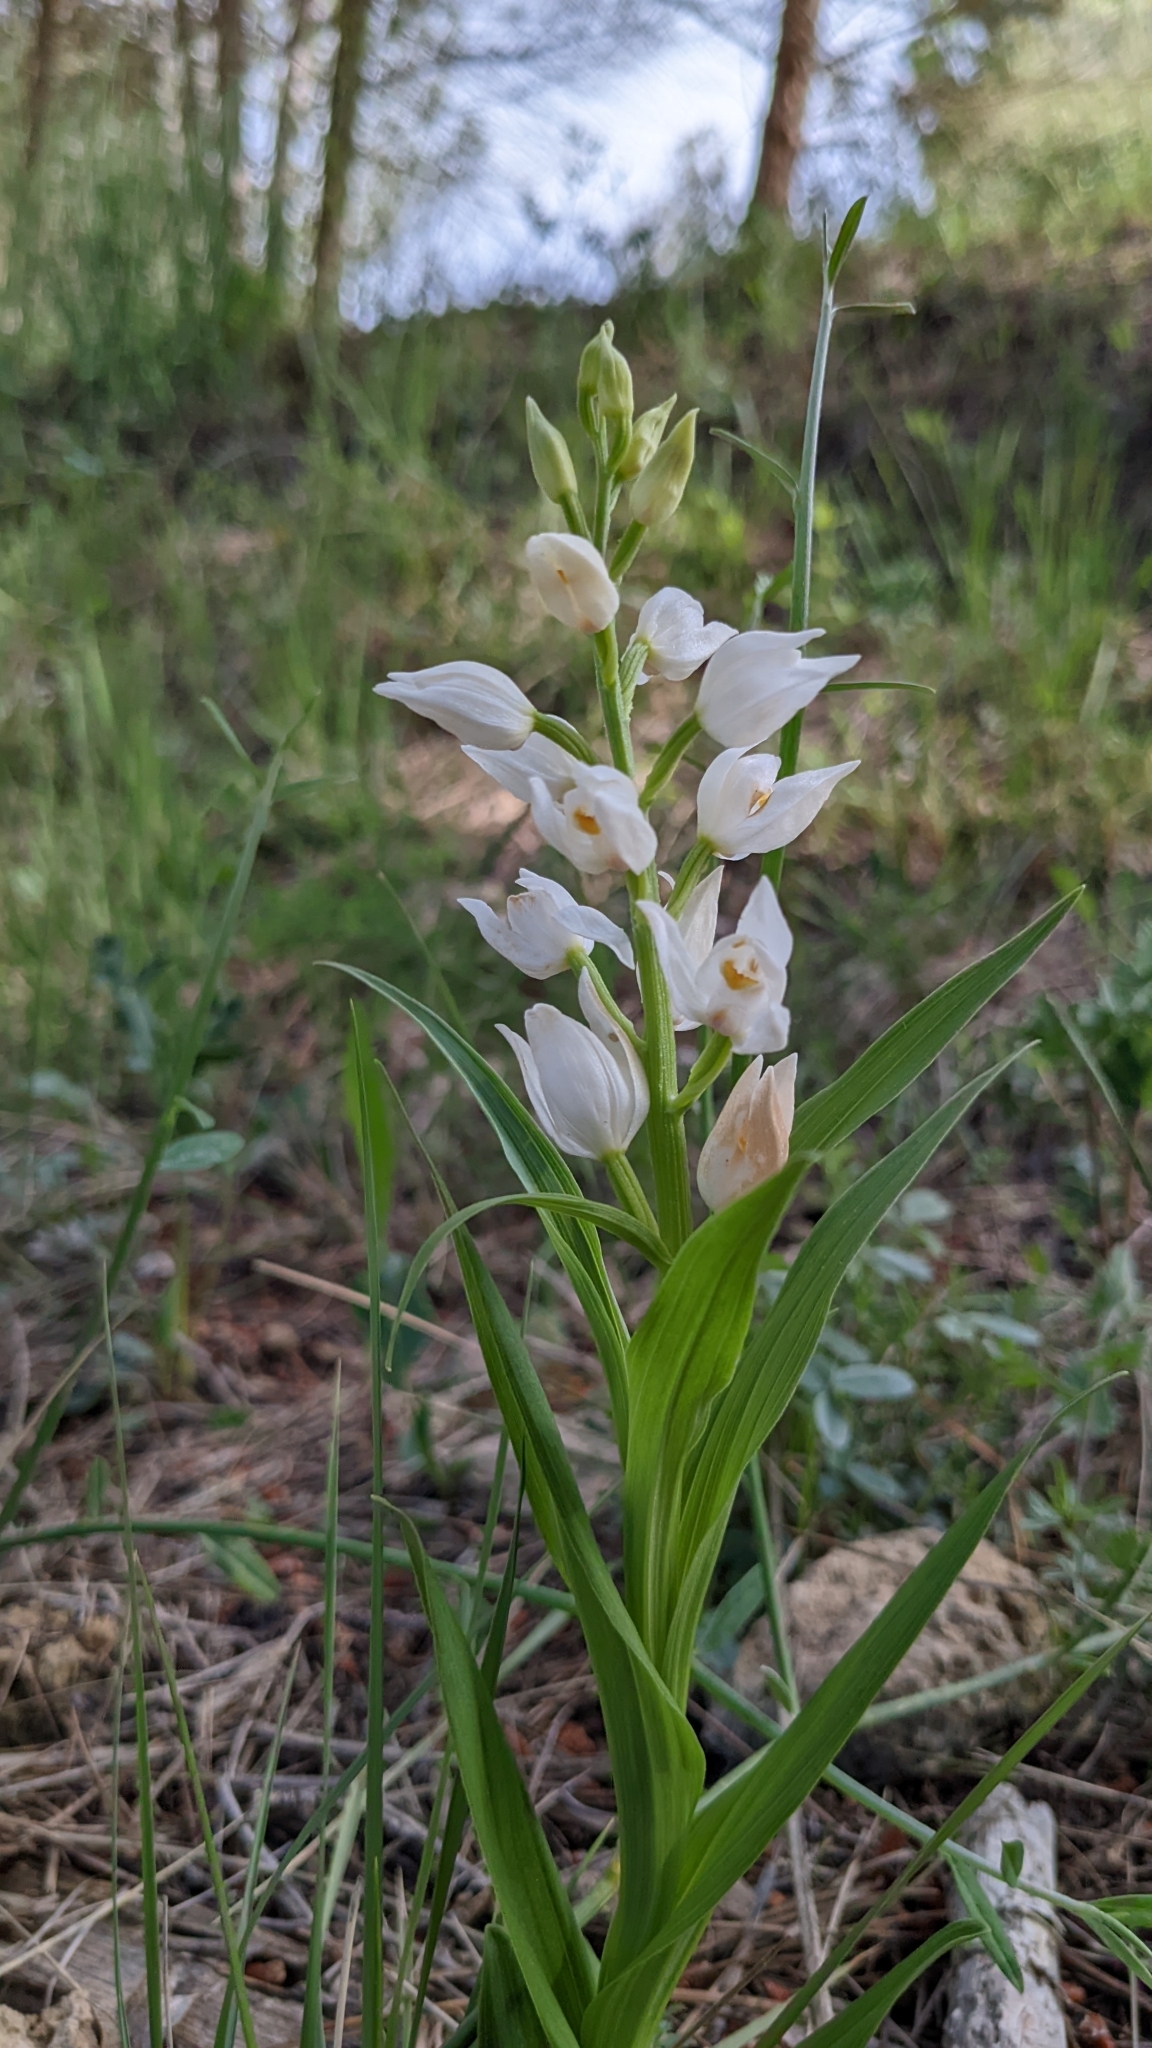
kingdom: Plantae
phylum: Tracheophyta
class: Liliopsida
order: Asparagales
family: Orchidaceae
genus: Cephalanthera
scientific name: Cephalanthera longifolia
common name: Narrow-leaved helleborine
